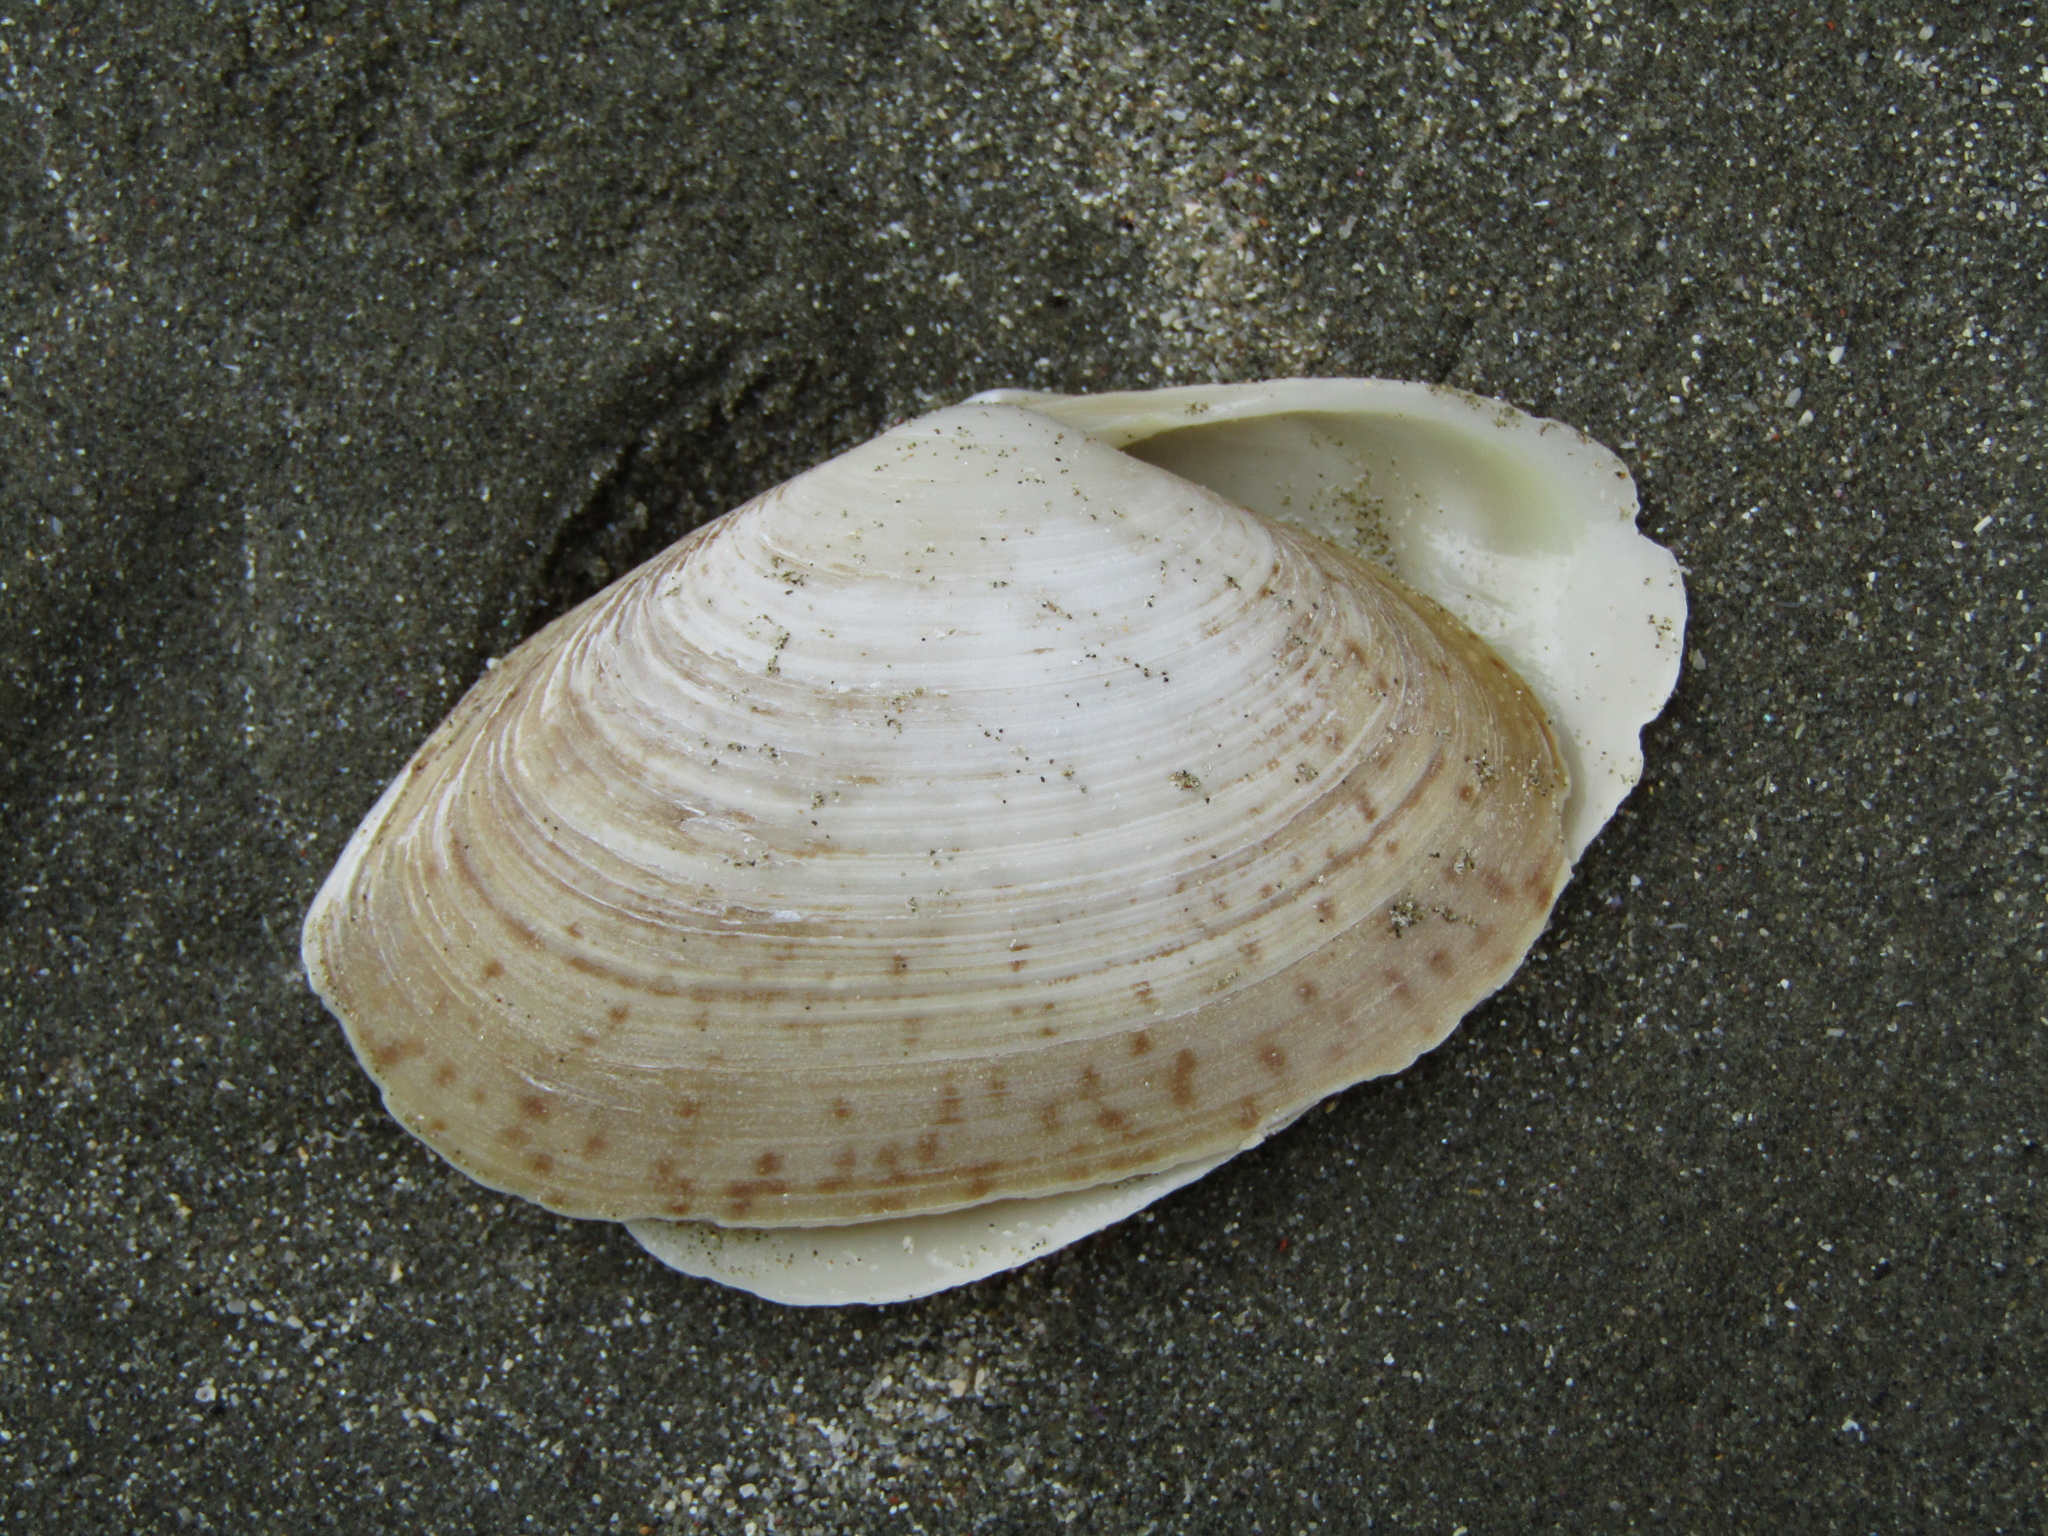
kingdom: Animalia
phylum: Mollusca
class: Bivalvia
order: Venerida
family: Mactridae
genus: Oxyperas
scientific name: Oxyperas elongatum
